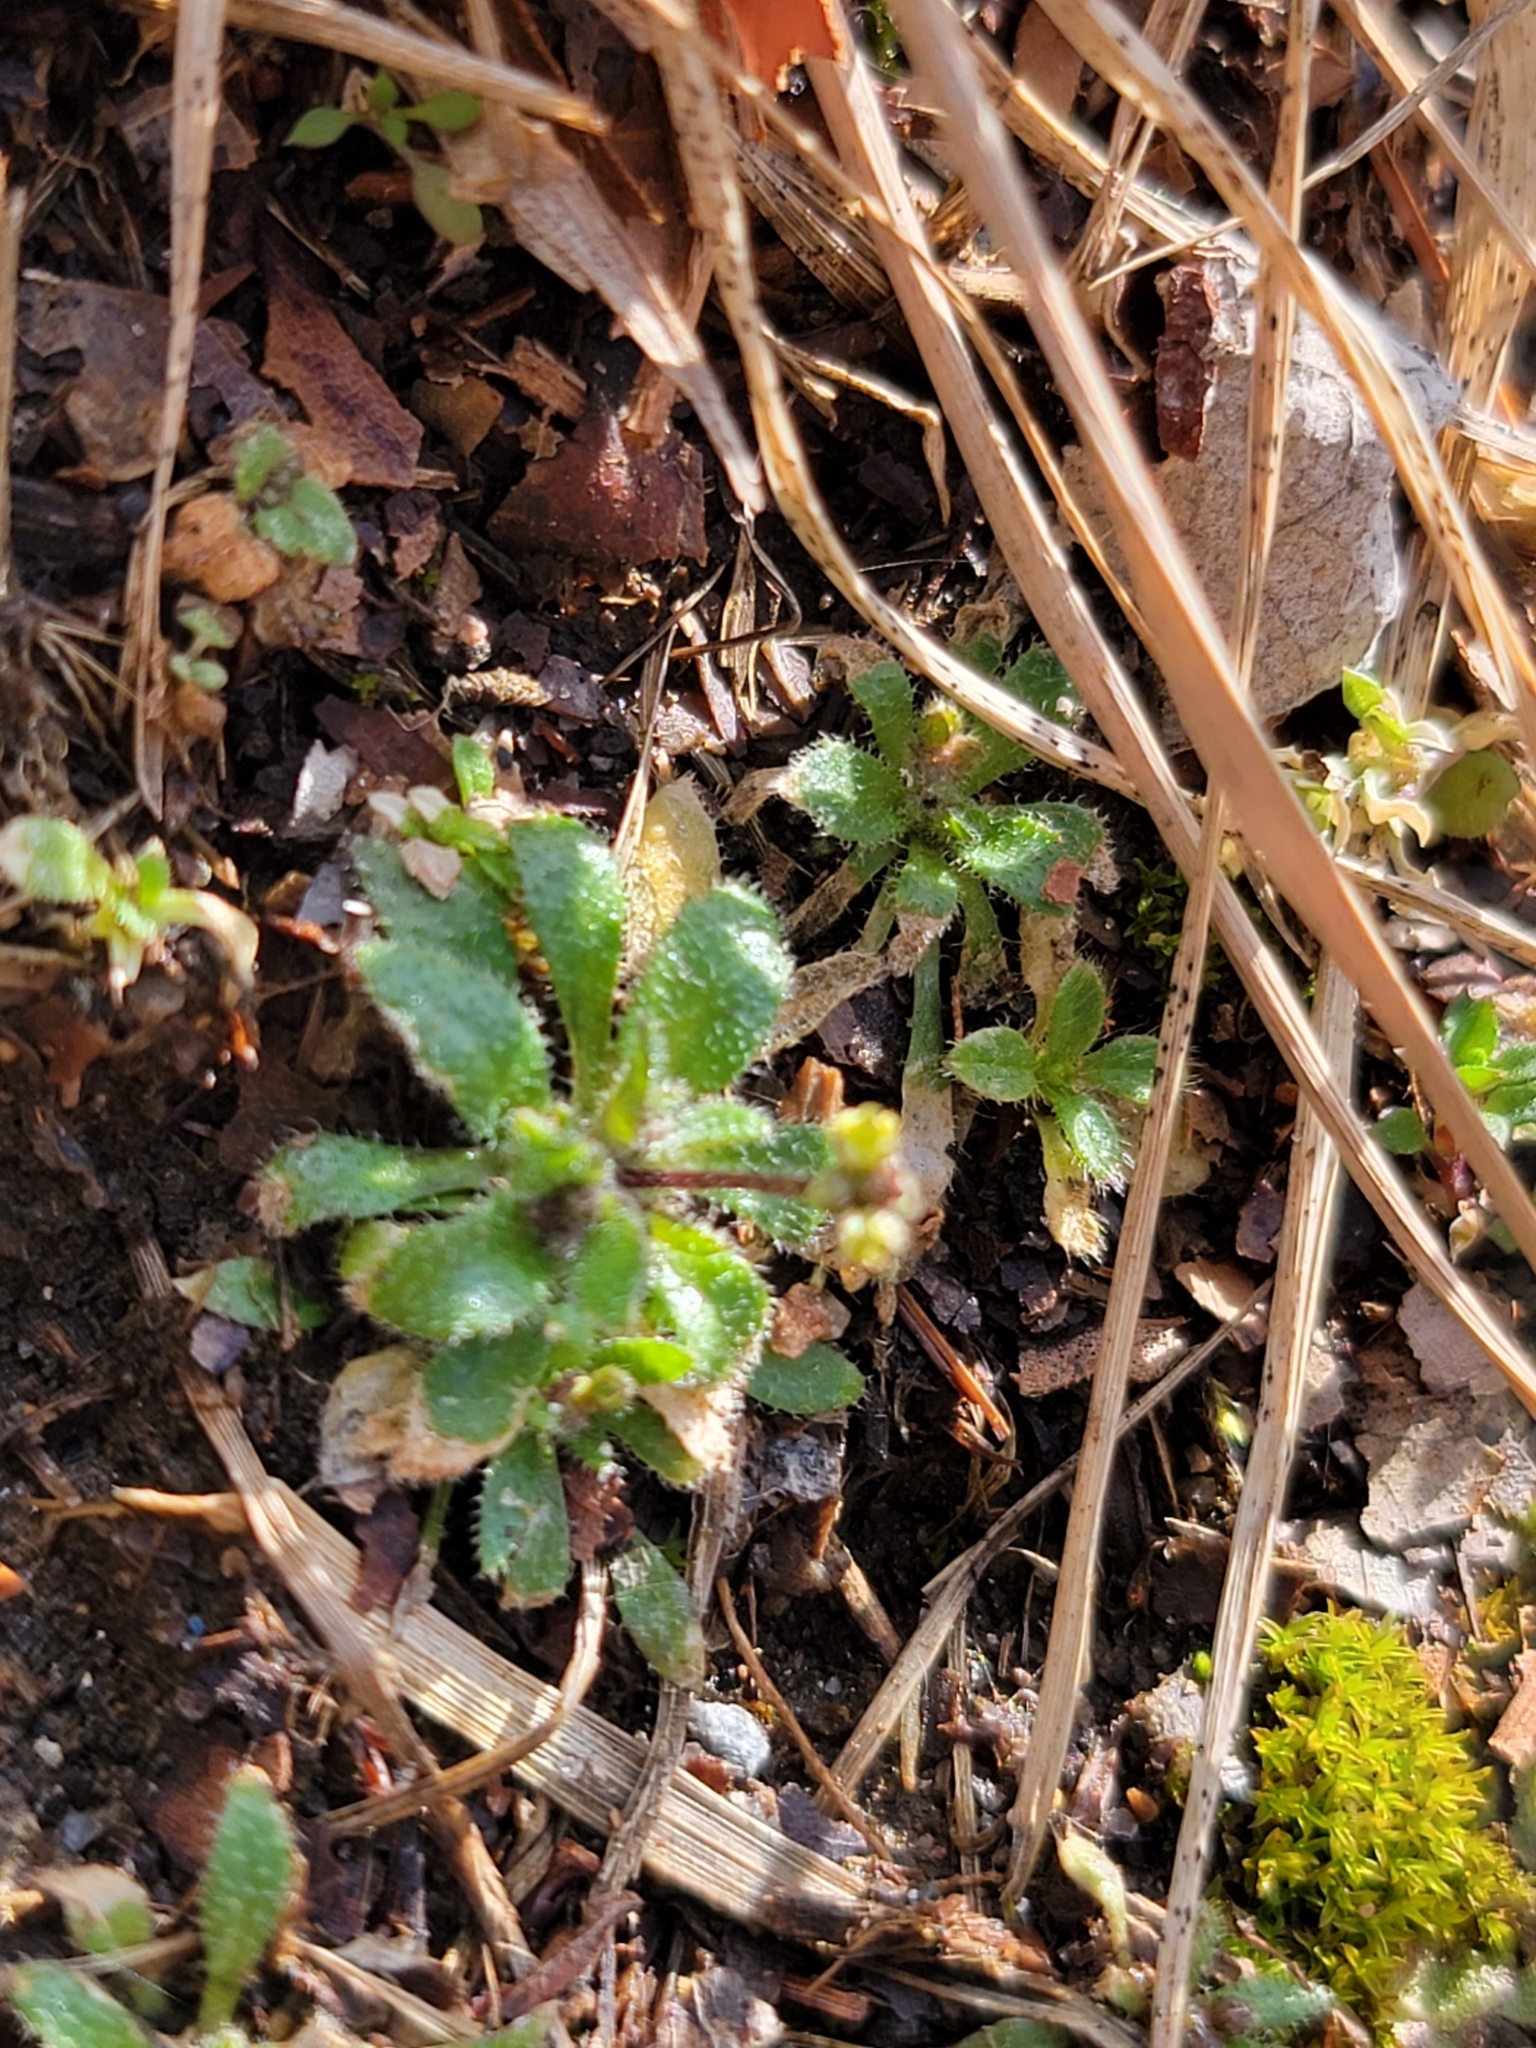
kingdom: Plantae
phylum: Tracheophyta
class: Magnoliopsida
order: Brassicales
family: Brassicaceae
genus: Draba
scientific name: Draba verna
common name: Spring draba
